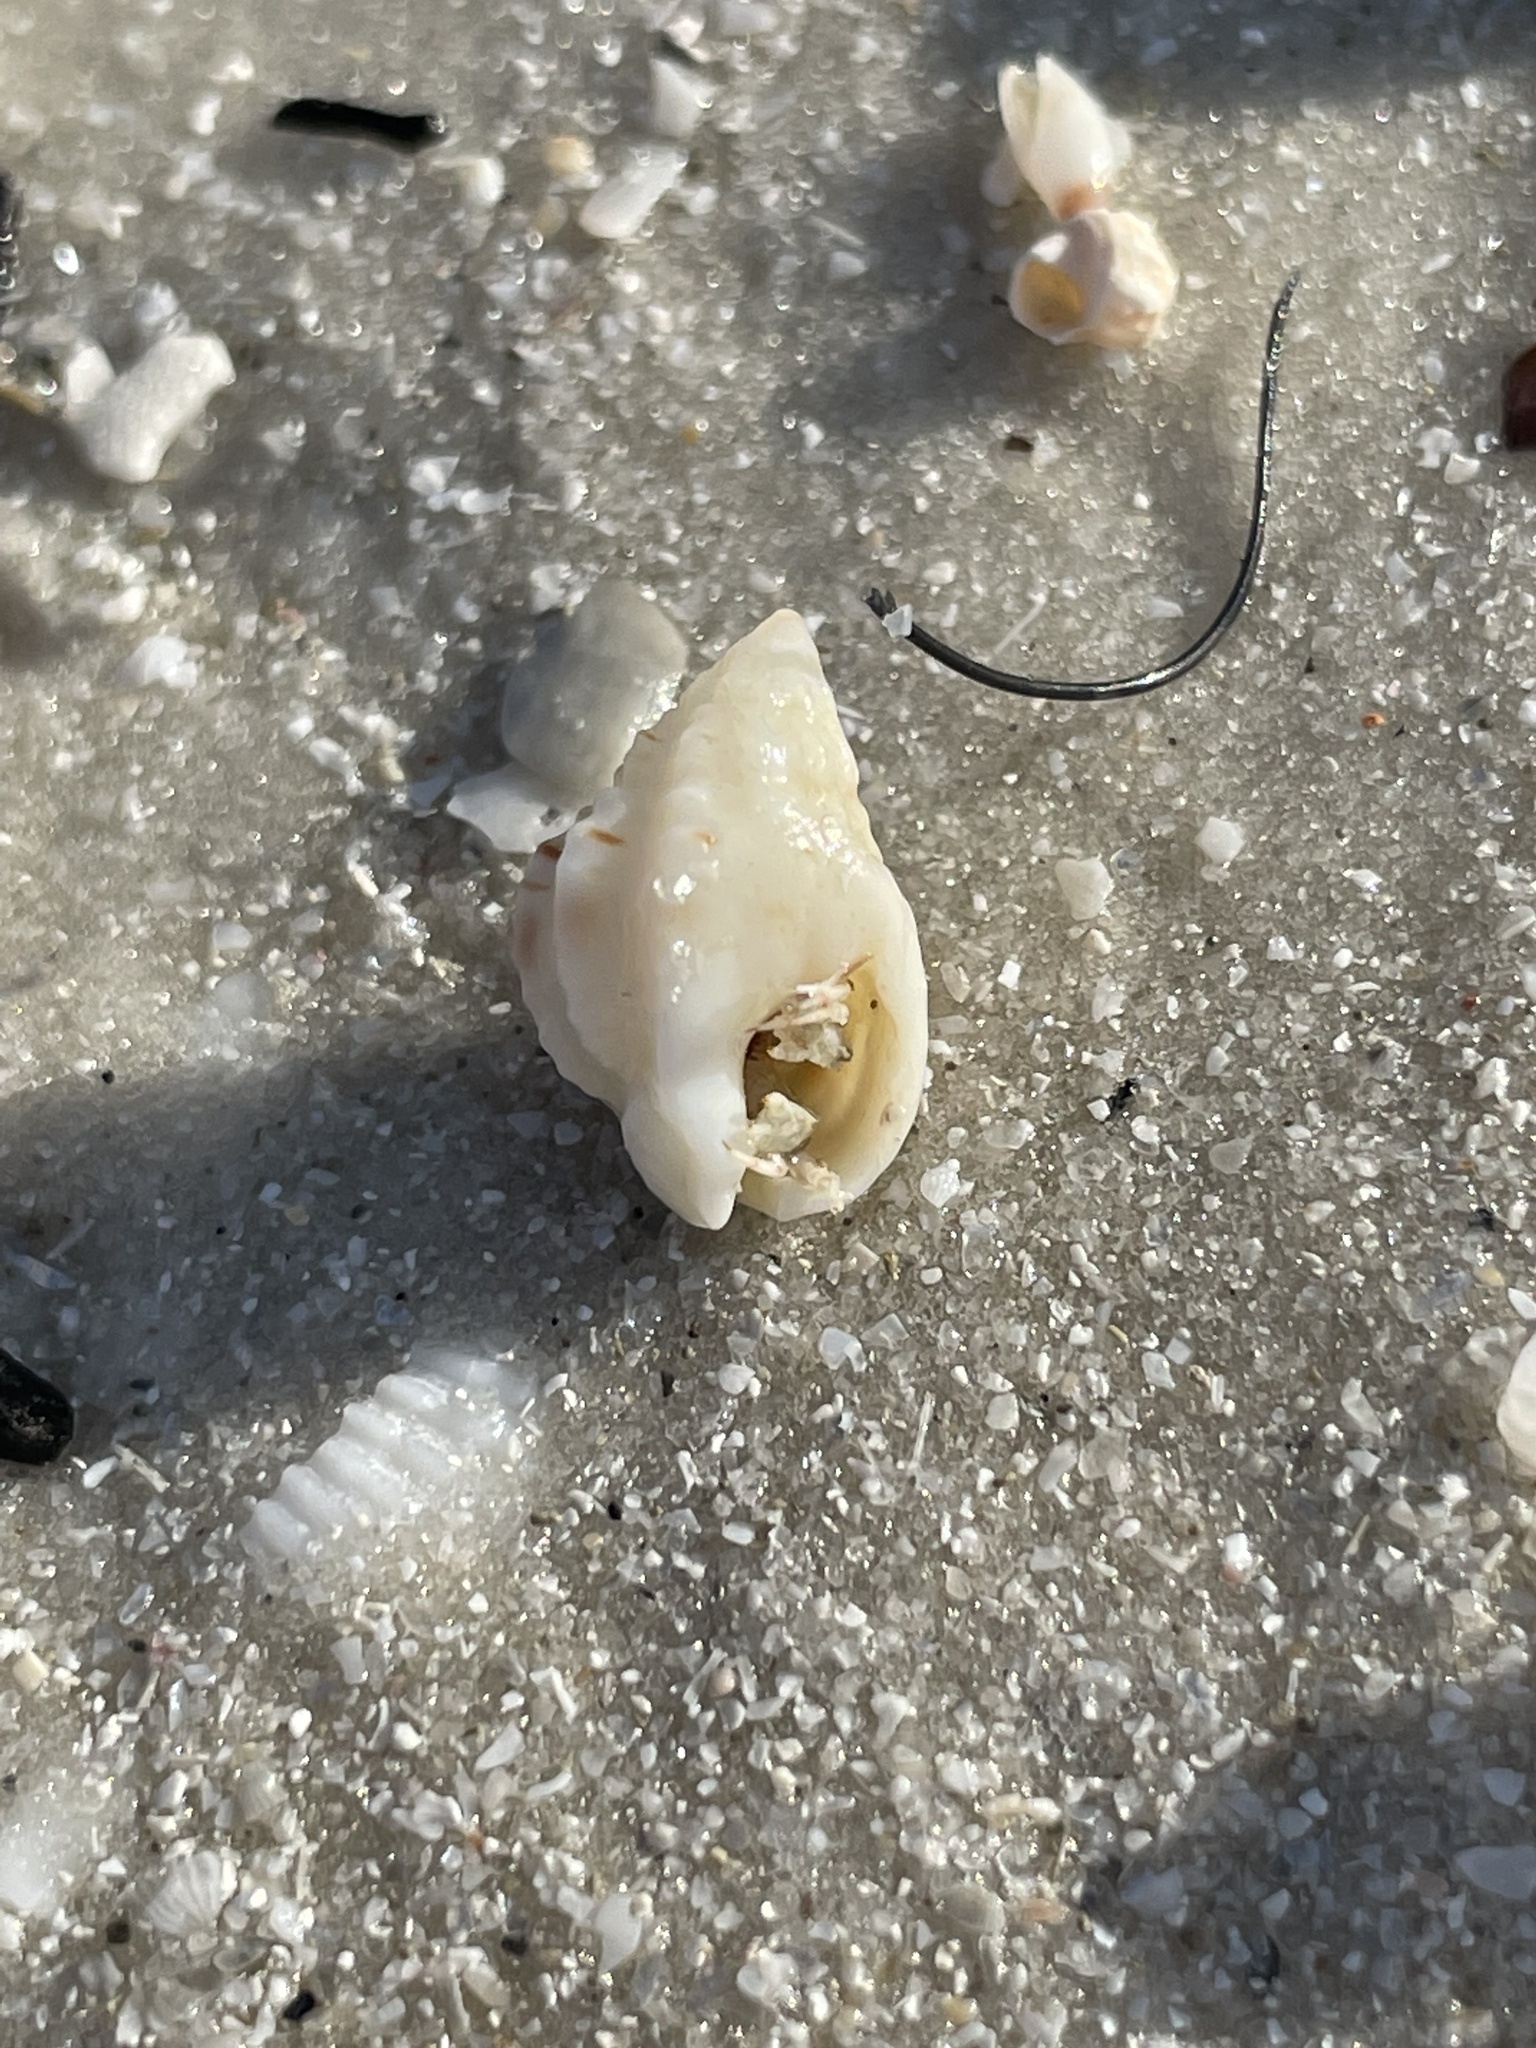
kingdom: Animalia
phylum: Mollusca
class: Gastropoda
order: Neogastropoda
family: Nassariidae
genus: Phrontis
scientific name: Phrontis vibex
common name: Bruised nassa
